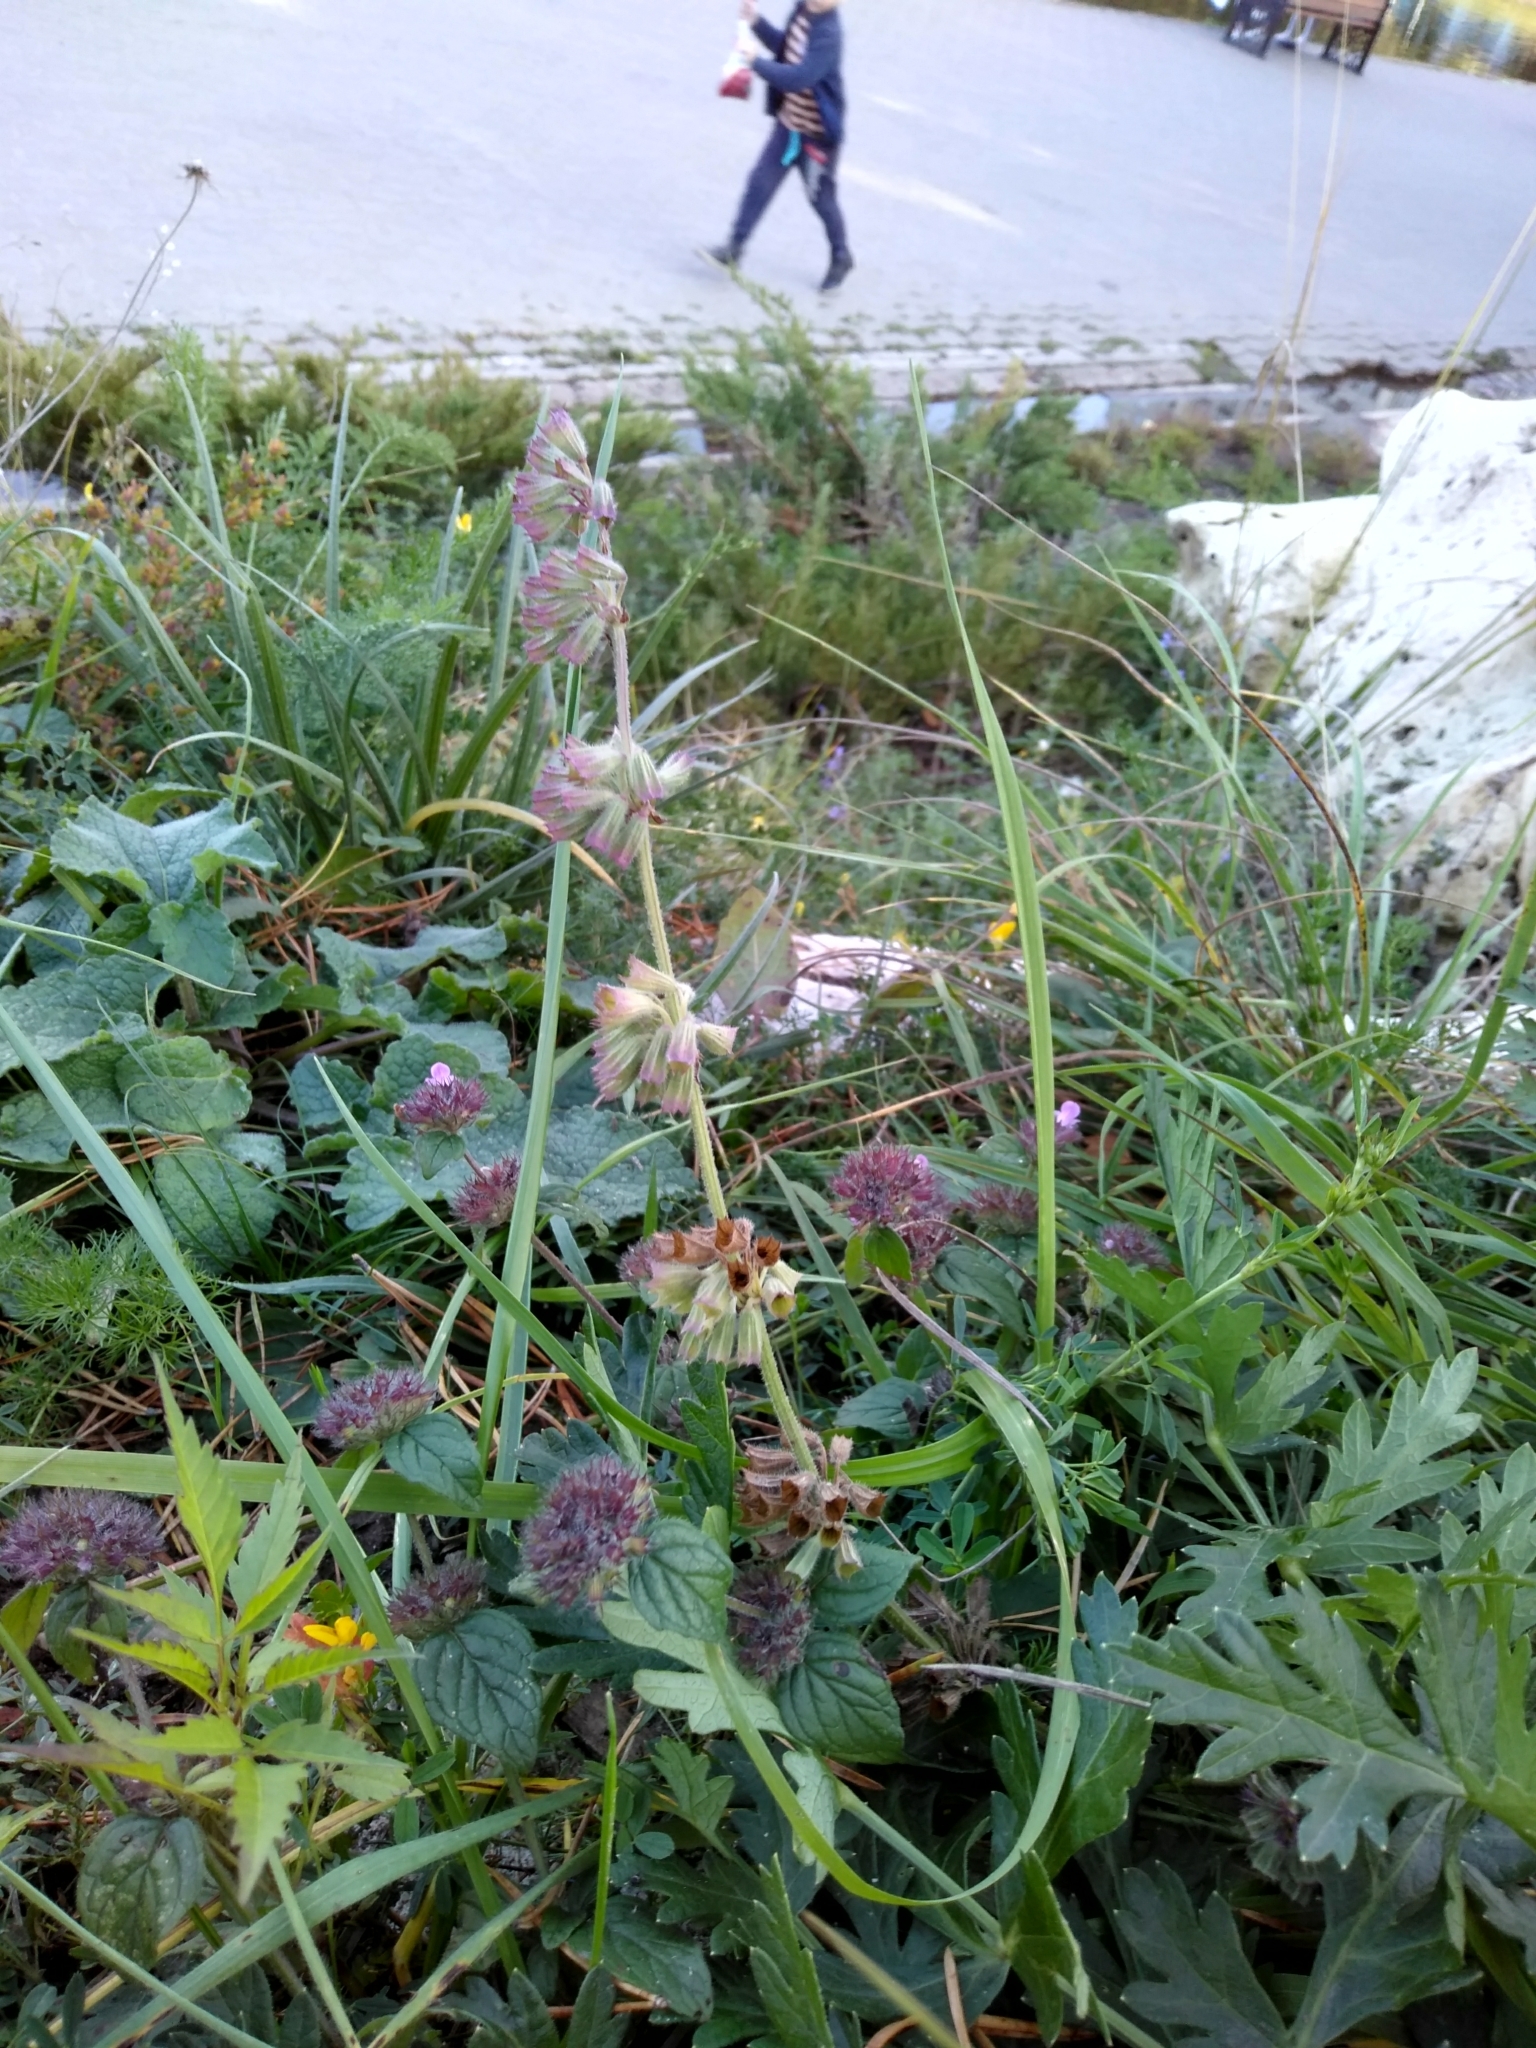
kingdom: Plantae
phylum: Tracheophyta
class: Magnoliopsida
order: Lamiales
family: Lamiaceae
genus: Salvia
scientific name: Salvia verticillata
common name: Whorled clary
